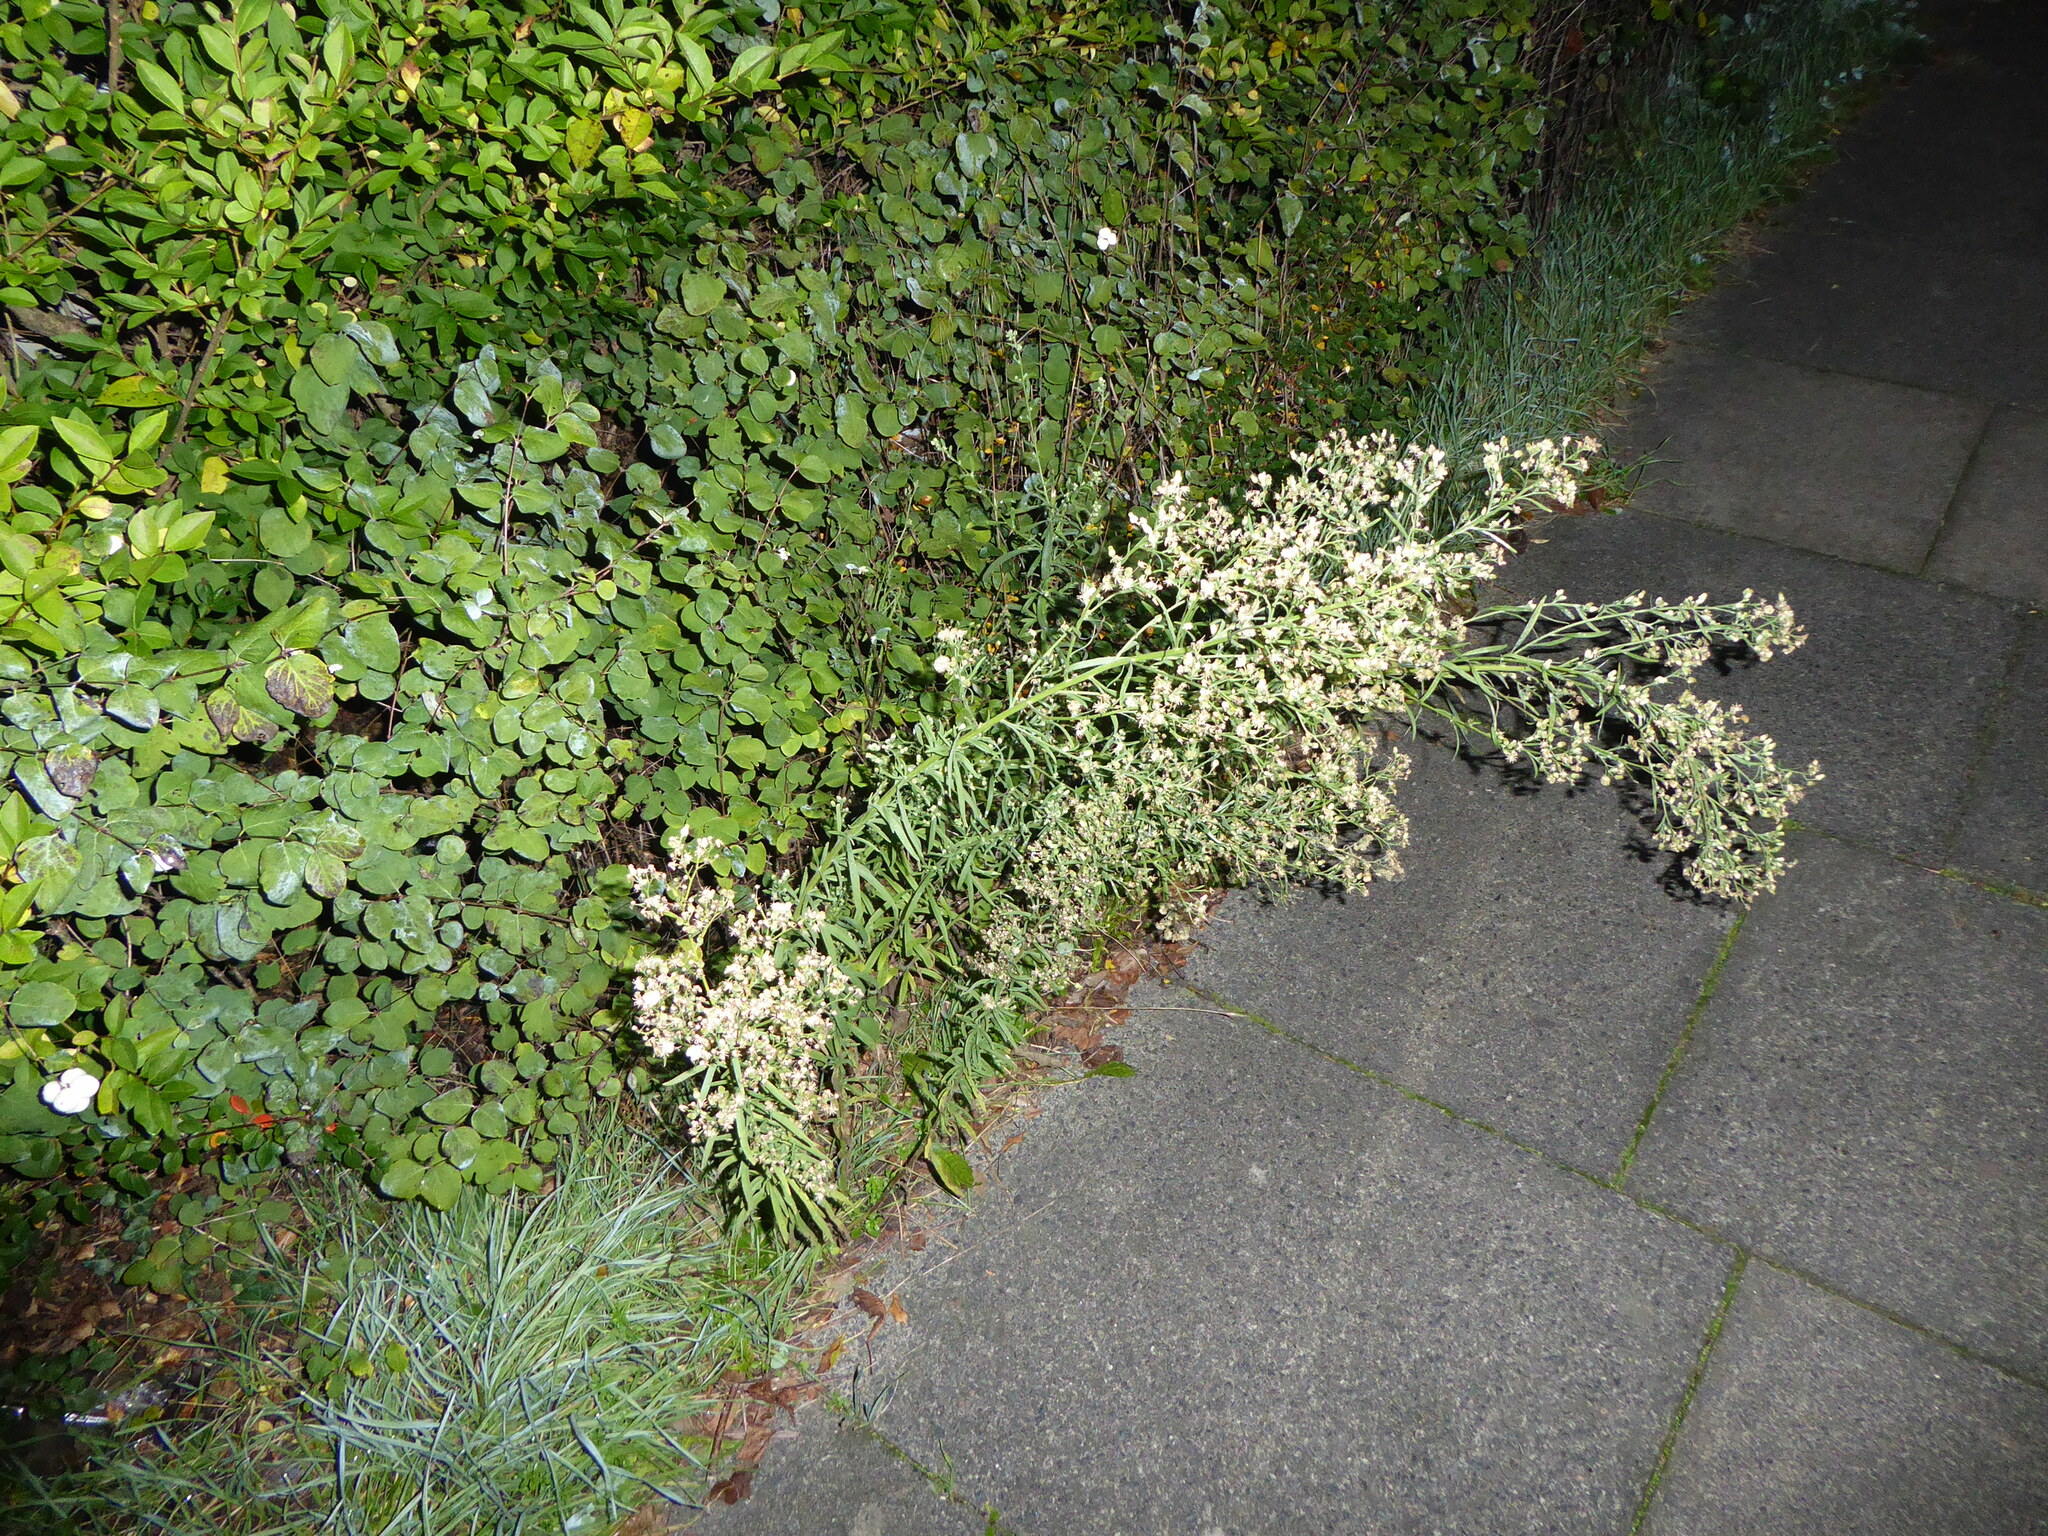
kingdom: Plantae
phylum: Tracheophyta
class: Magnoliopsida
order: Asterales
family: Asteraceae
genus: Erigeron
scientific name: Erigeron sumatrensis
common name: Daisy
